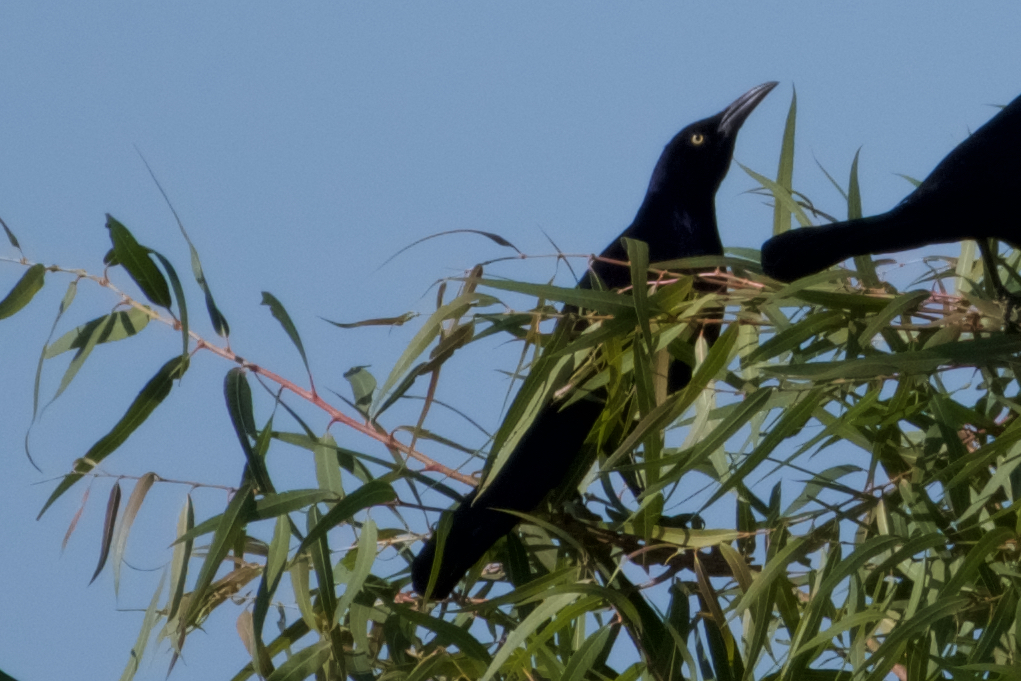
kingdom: Animalia
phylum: Chordata
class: Aves
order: Passeriformes
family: Icteridae
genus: Quiscalus
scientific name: Quiscalus mexicanus
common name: Great-tailed grackle
